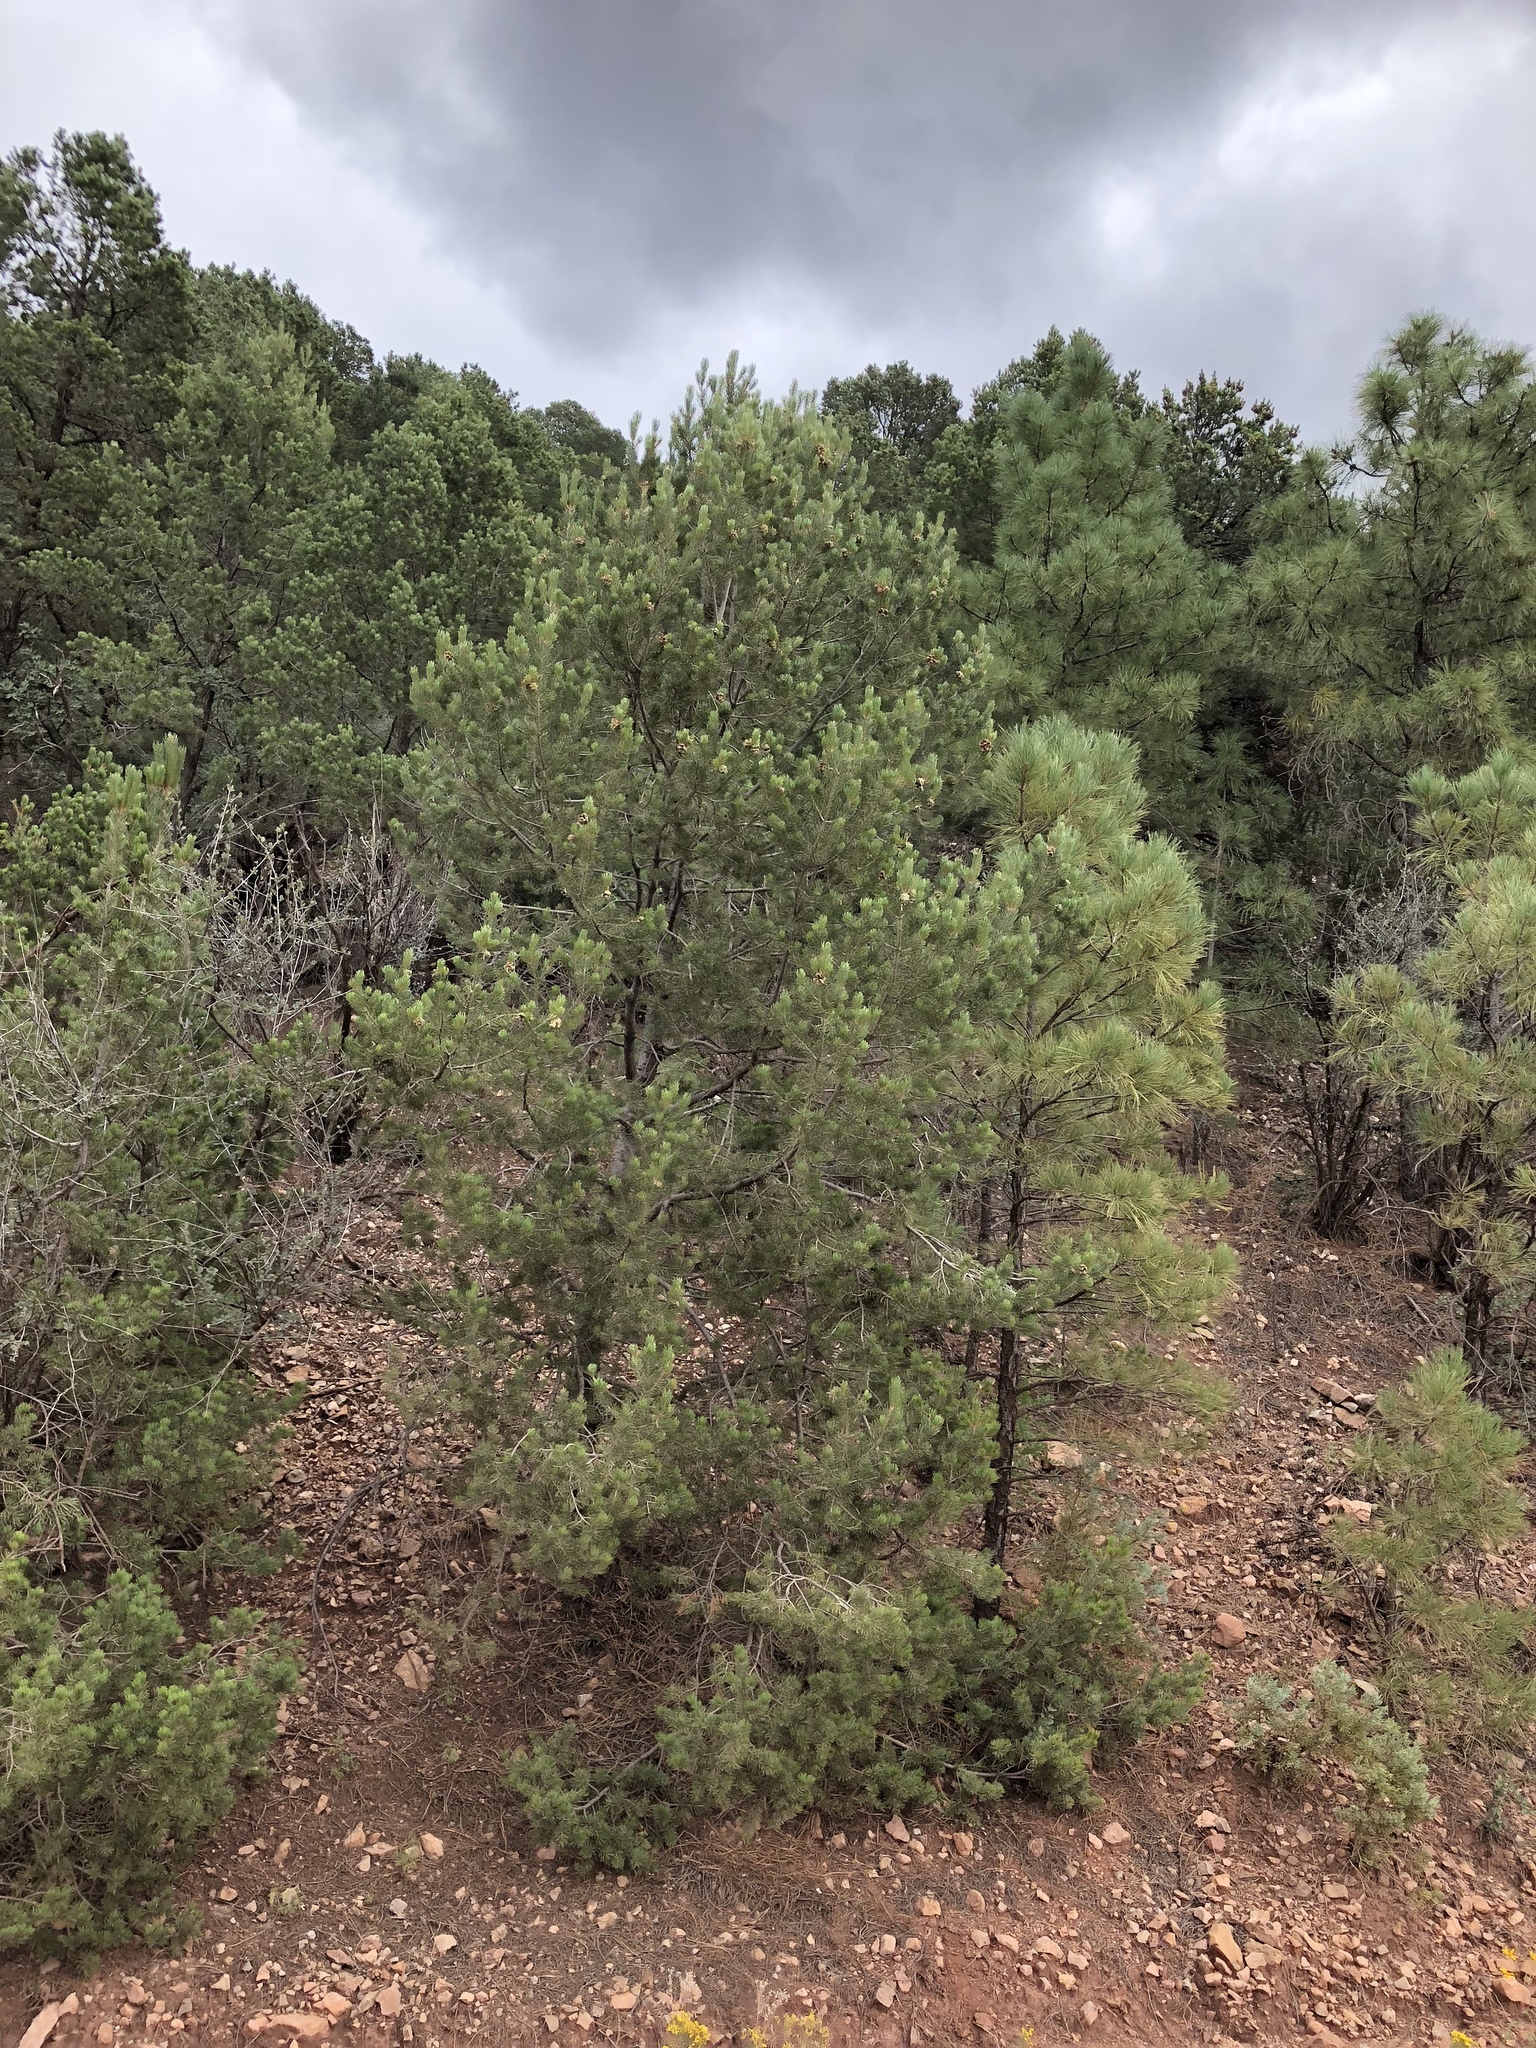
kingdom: Plantae
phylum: Tracheophyta
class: Pinopsida
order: Pinales
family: Pinaceae
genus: Pinus
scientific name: Pinus edulis
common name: Colorado pinyon
